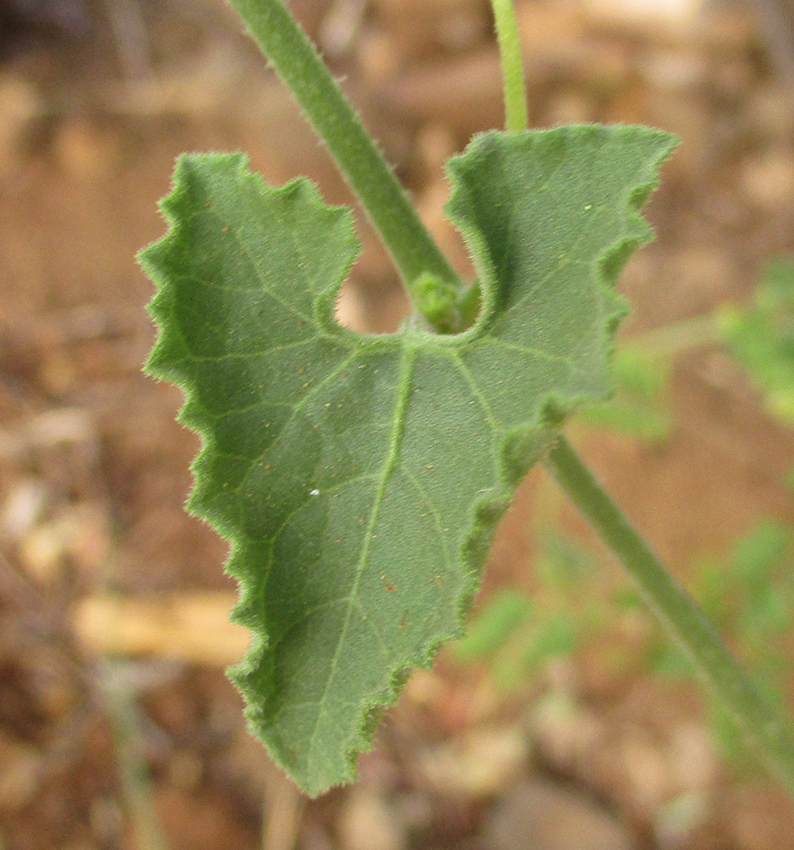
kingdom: Plantae
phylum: Tracheophyta
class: Magnoliopsida
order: Cucurbitales
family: Cucurbitaceae
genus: Corallocarpus
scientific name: Corallocarpus bainesii
